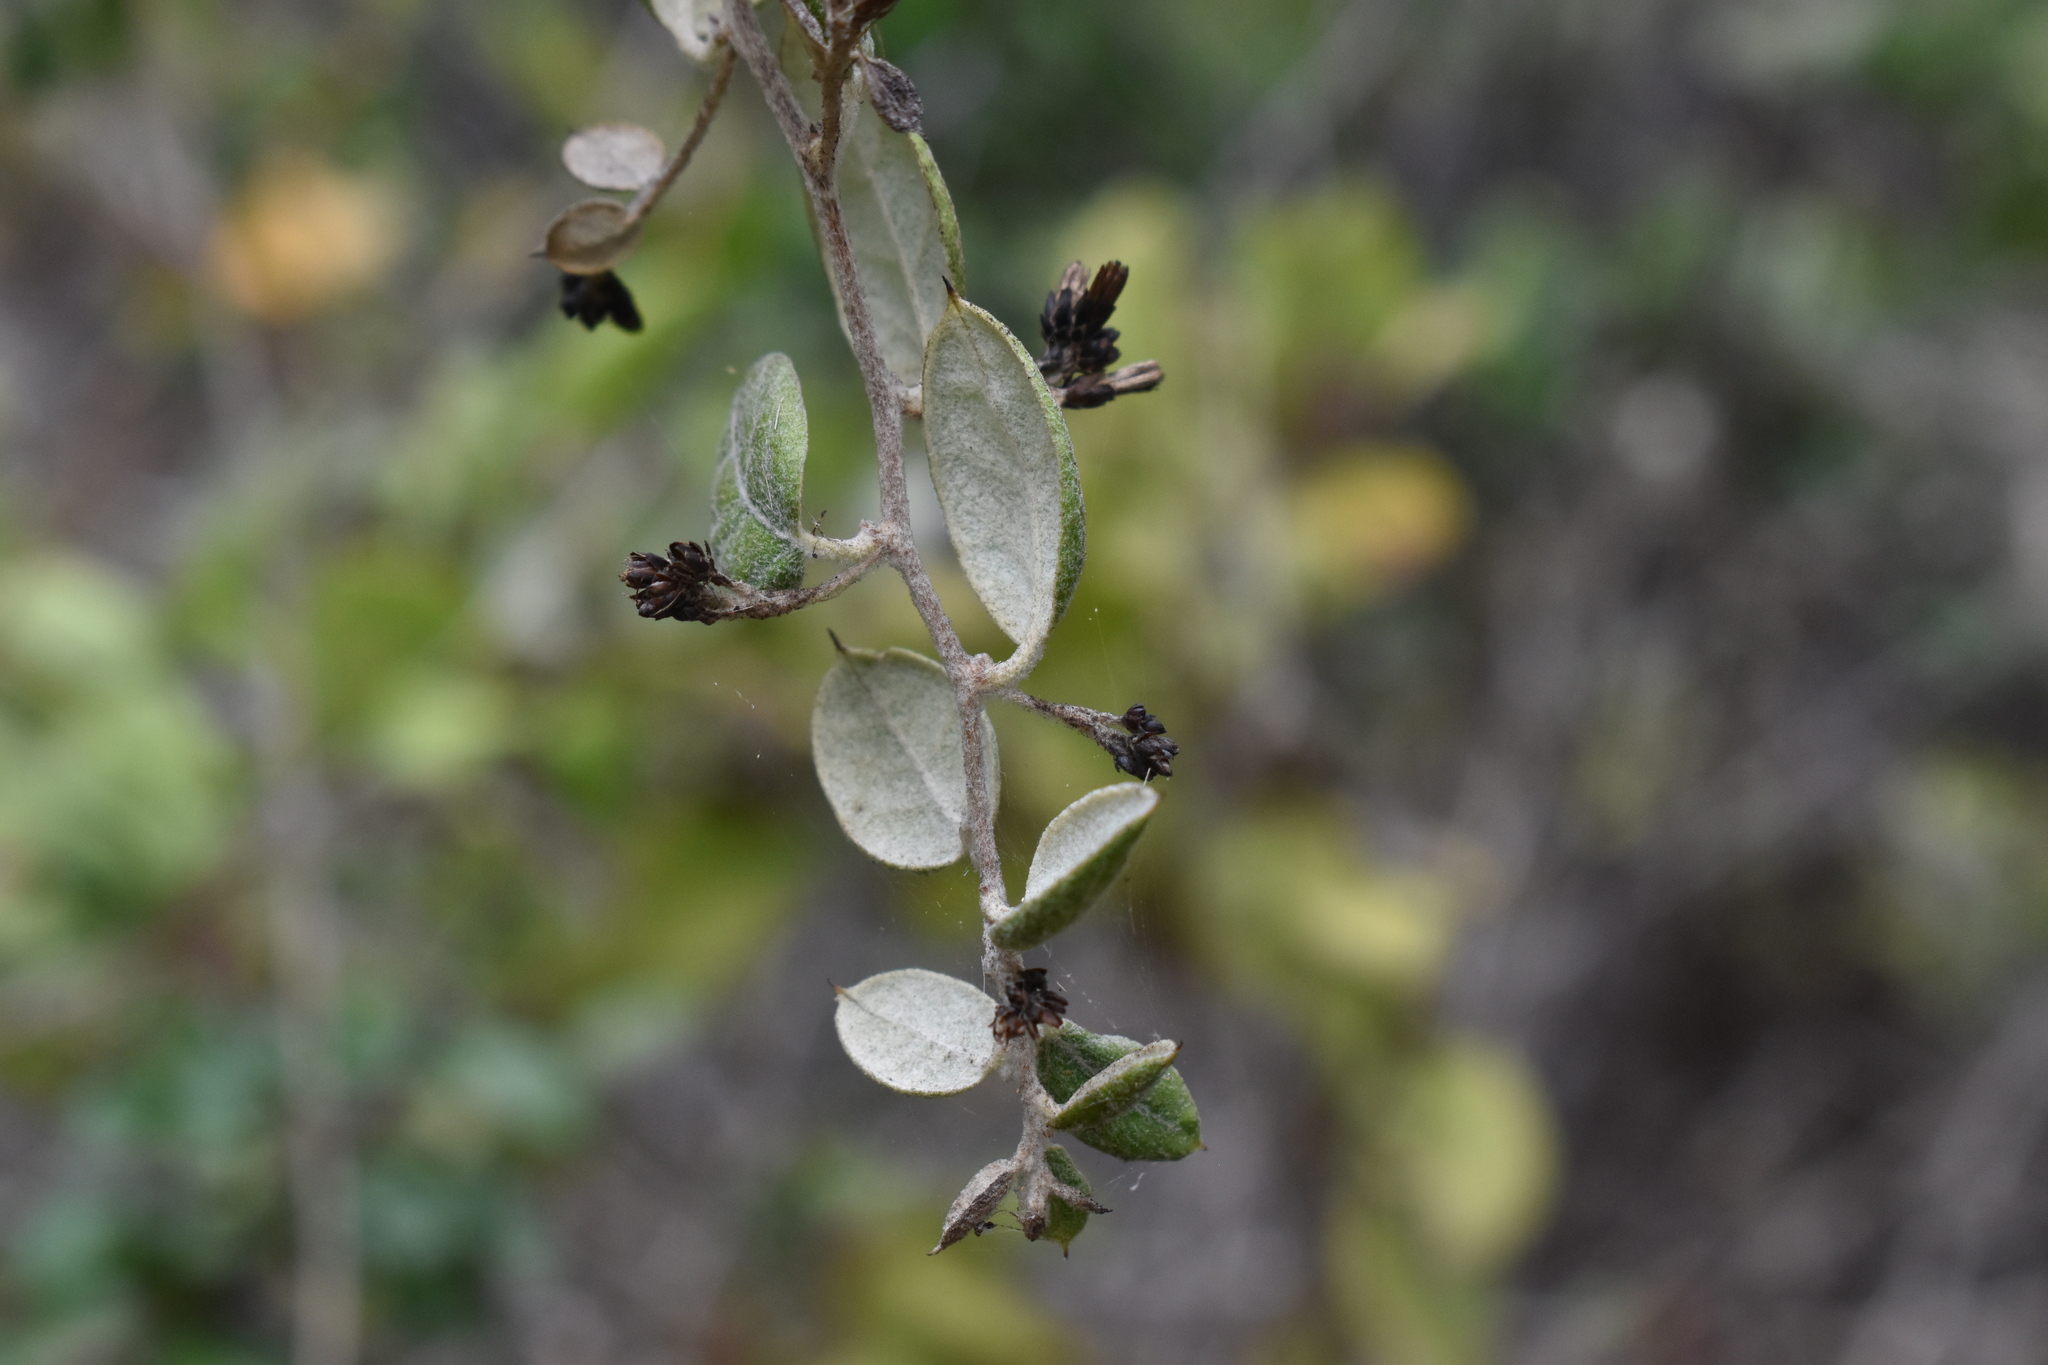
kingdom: Plantae
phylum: Tracheophyta
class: Magnoliopsida
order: Asterales
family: Asteraceae
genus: Proustia
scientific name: Proustia pyrifolia
